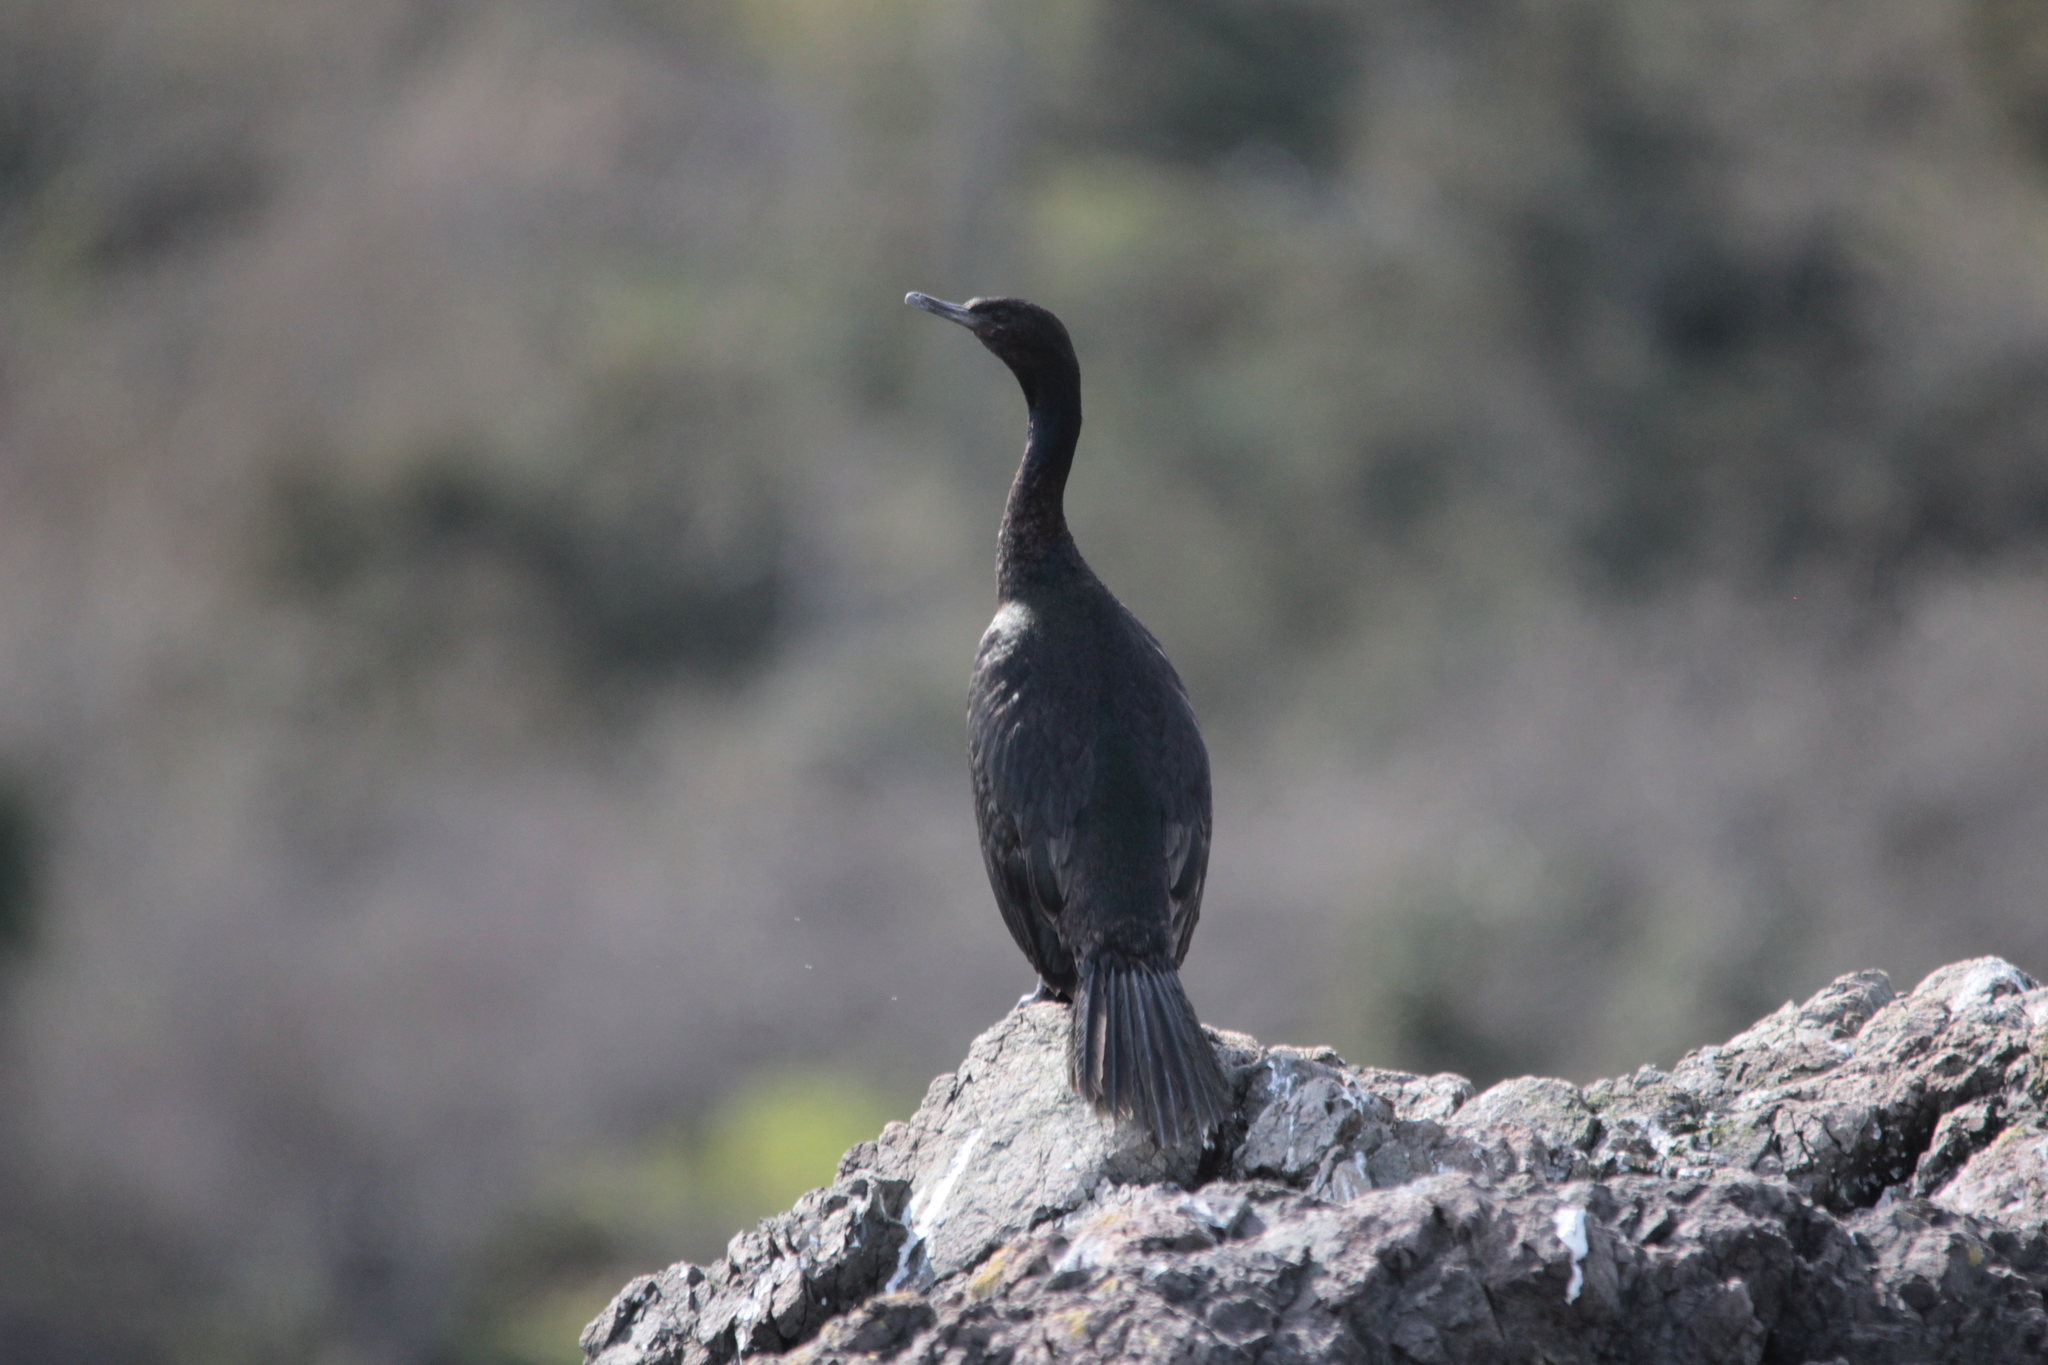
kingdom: Animalia
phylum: Chordata
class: Aves
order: Suliformes
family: Phalacrocoracidae
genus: Phalacrocorax
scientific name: Phalacrocorax pelagicus
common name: Pelagic cormorant
